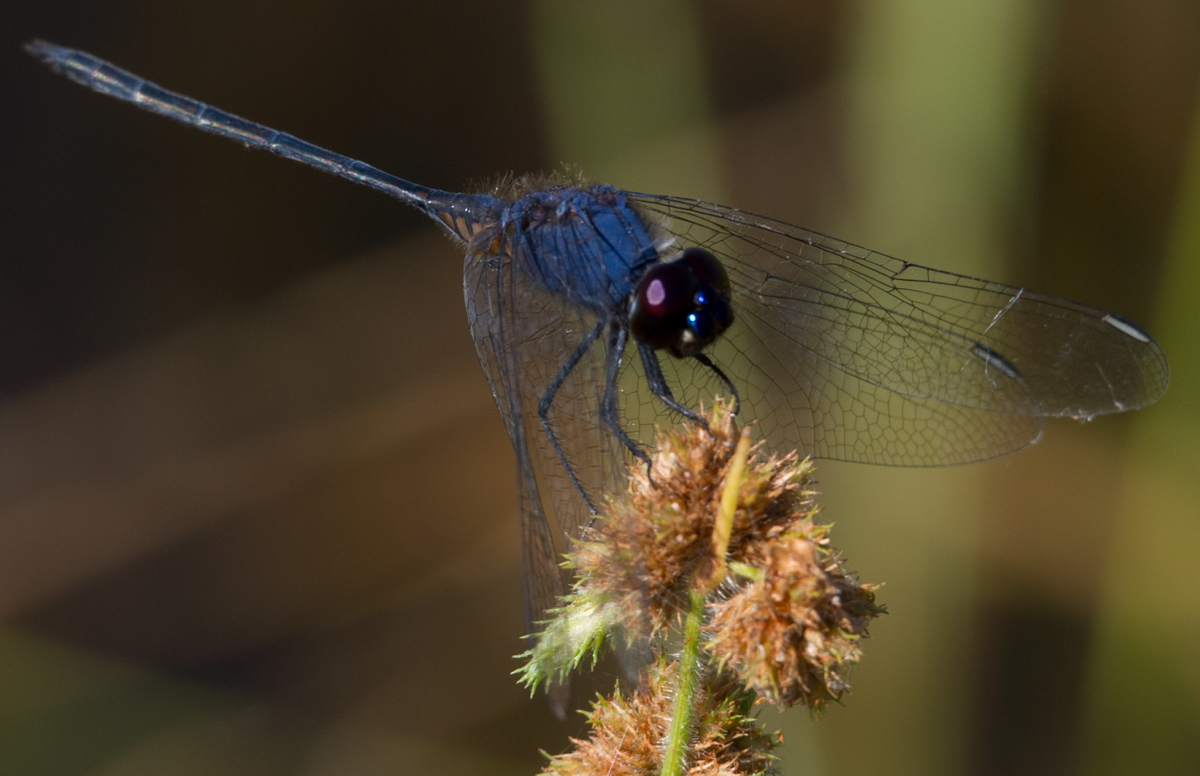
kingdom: Animalia
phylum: Arthropoda
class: Insecta
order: Odonata
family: Libellulidae
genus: Trithemis
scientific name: Trithemis hecate
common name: Silhouette dropwing
